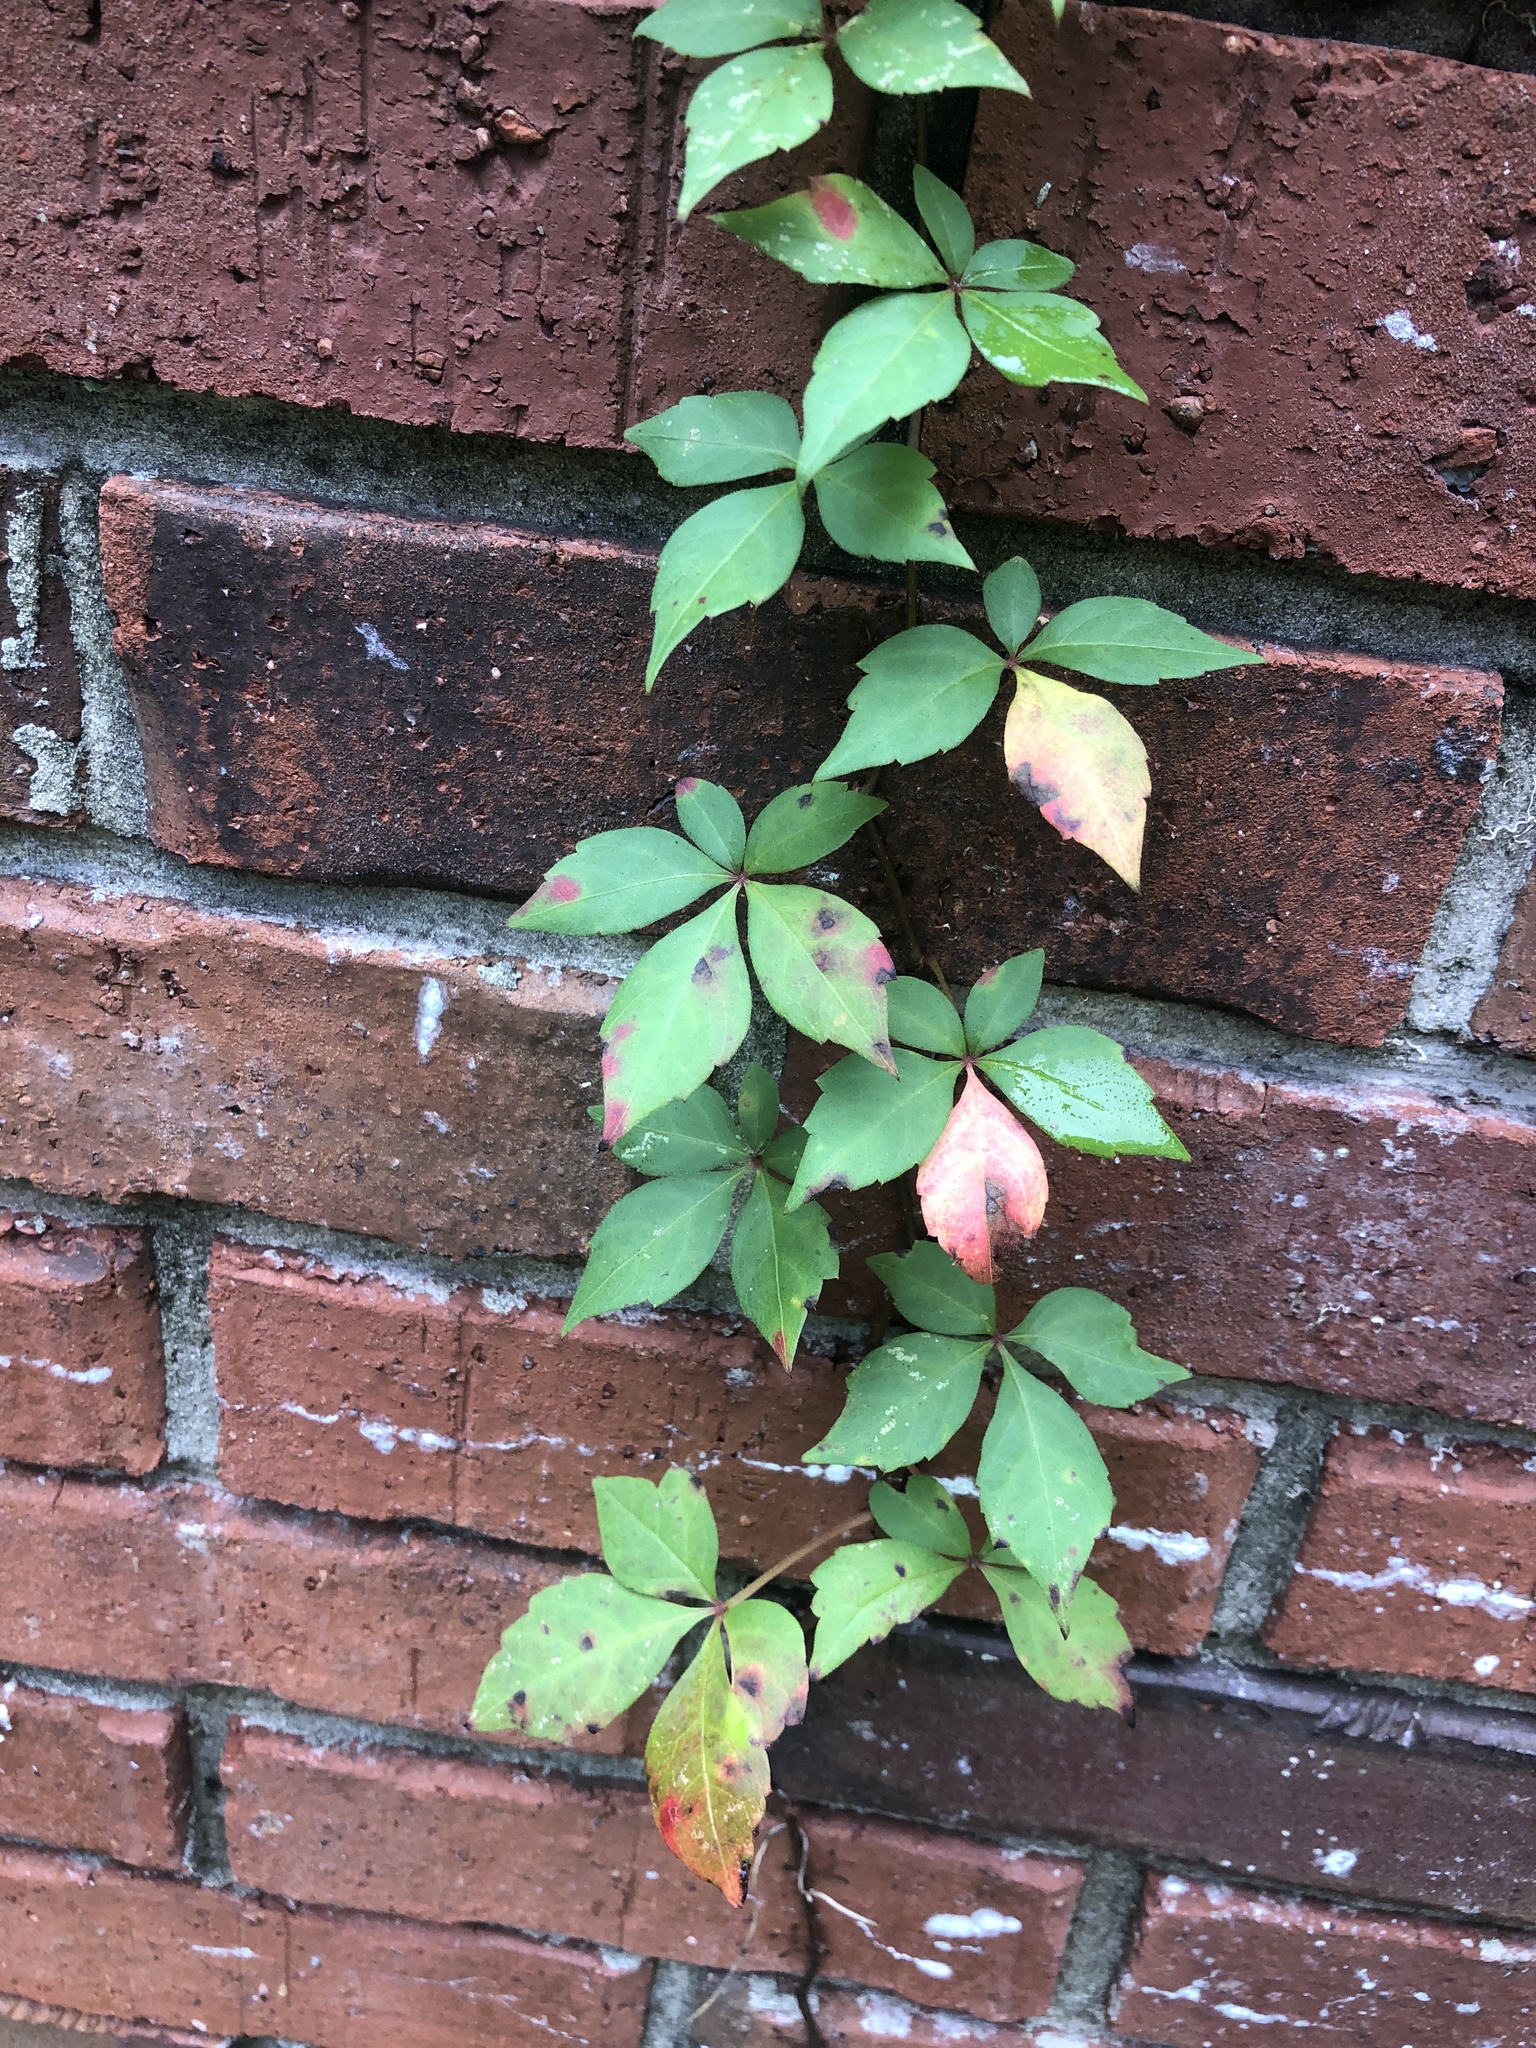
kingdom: Plantae
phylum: Tracheophyta
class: Magnoliopsida
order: Vitales
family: Vitaceae
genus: Parthenocissus
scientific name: Parthenocissus quinquefolia
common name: Virginia-creeper
